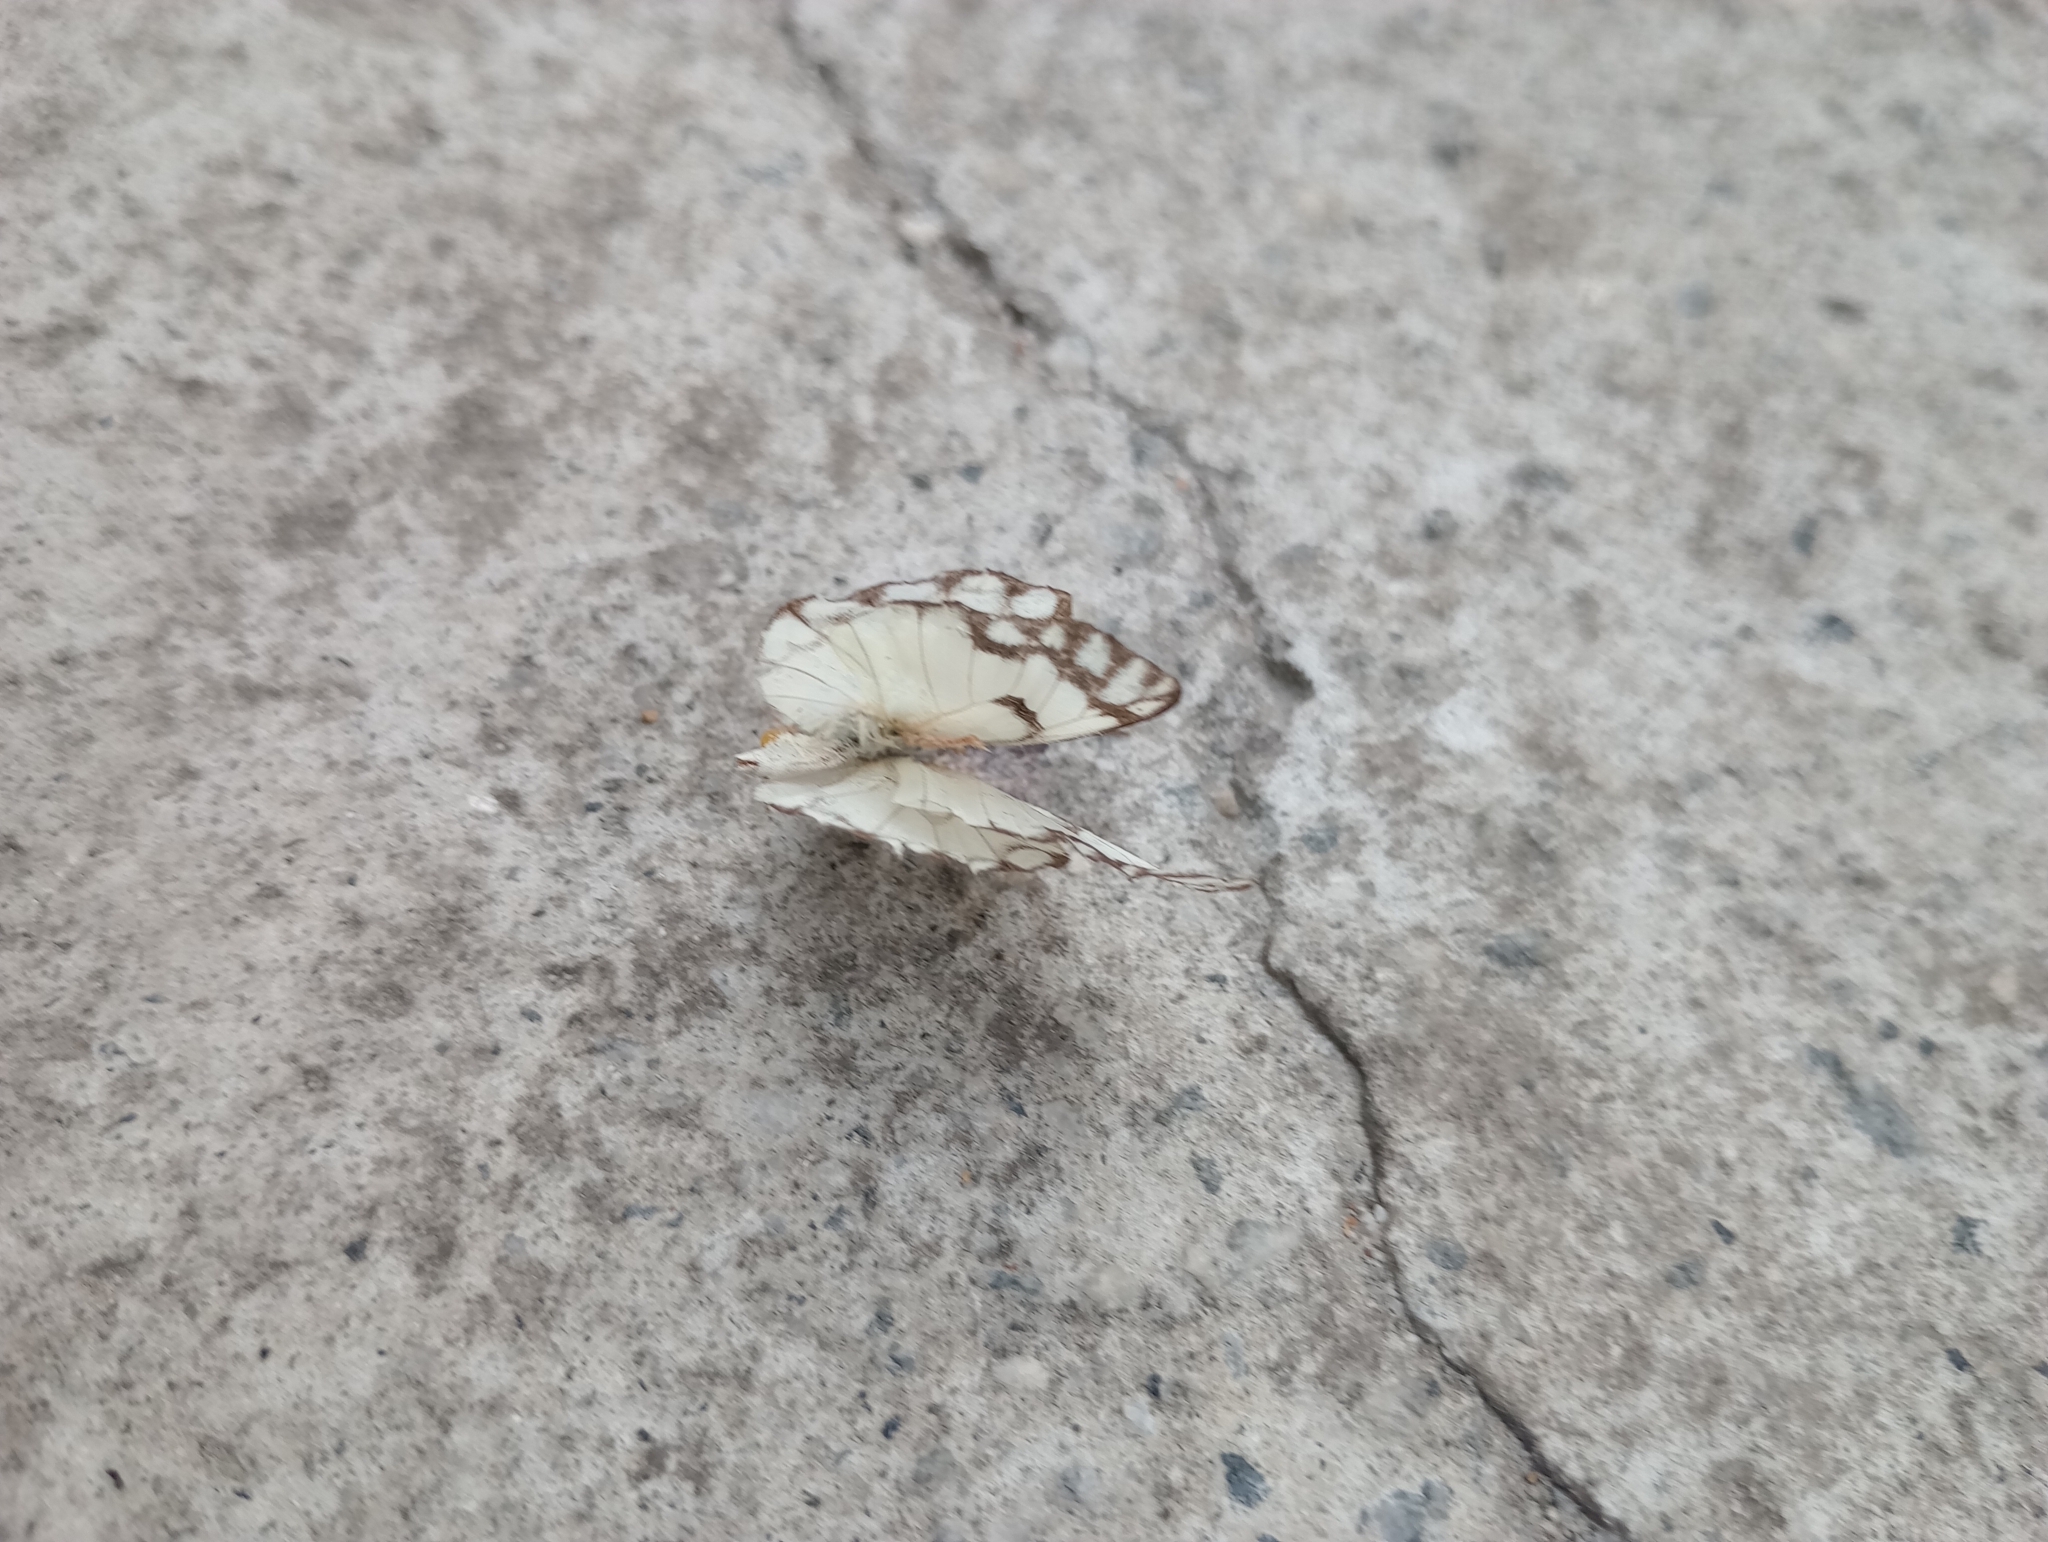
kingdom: Animalia
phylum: Arthropoda
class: Insecta
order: Lepidoptera
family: Pieridae
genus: Belenois
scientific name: Belenois aurota
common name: Brown-veined white
